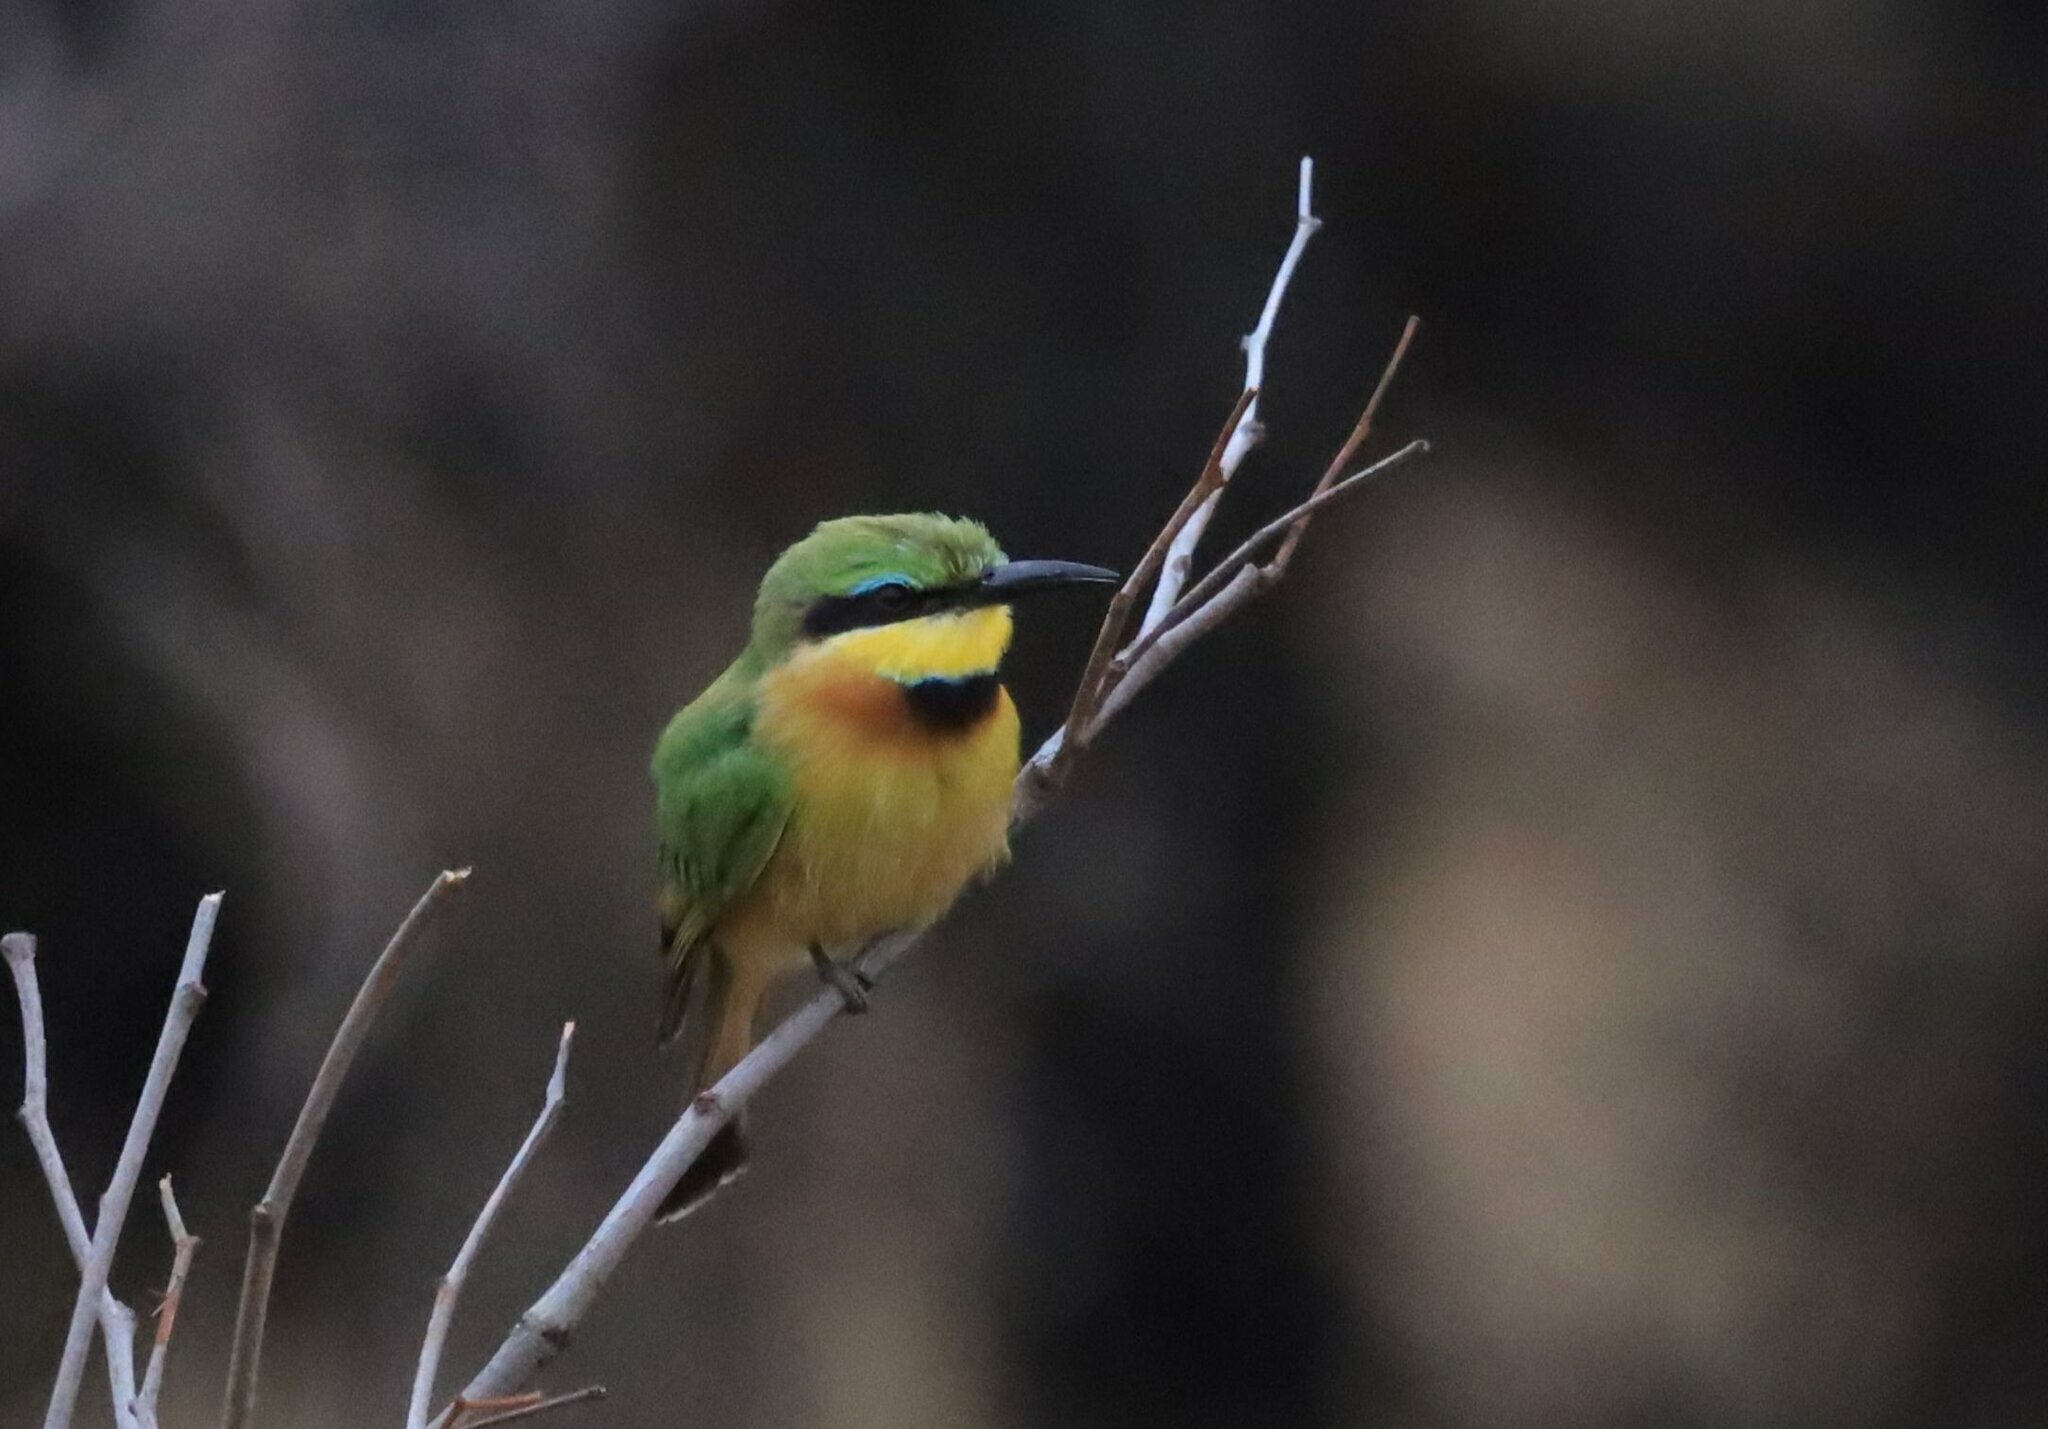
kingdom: Animalia
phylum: Chordata
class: Aves
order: Coraciiformes
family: Meropidae
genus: Merops
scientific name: Merops pusillus
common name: Little bee-eater
